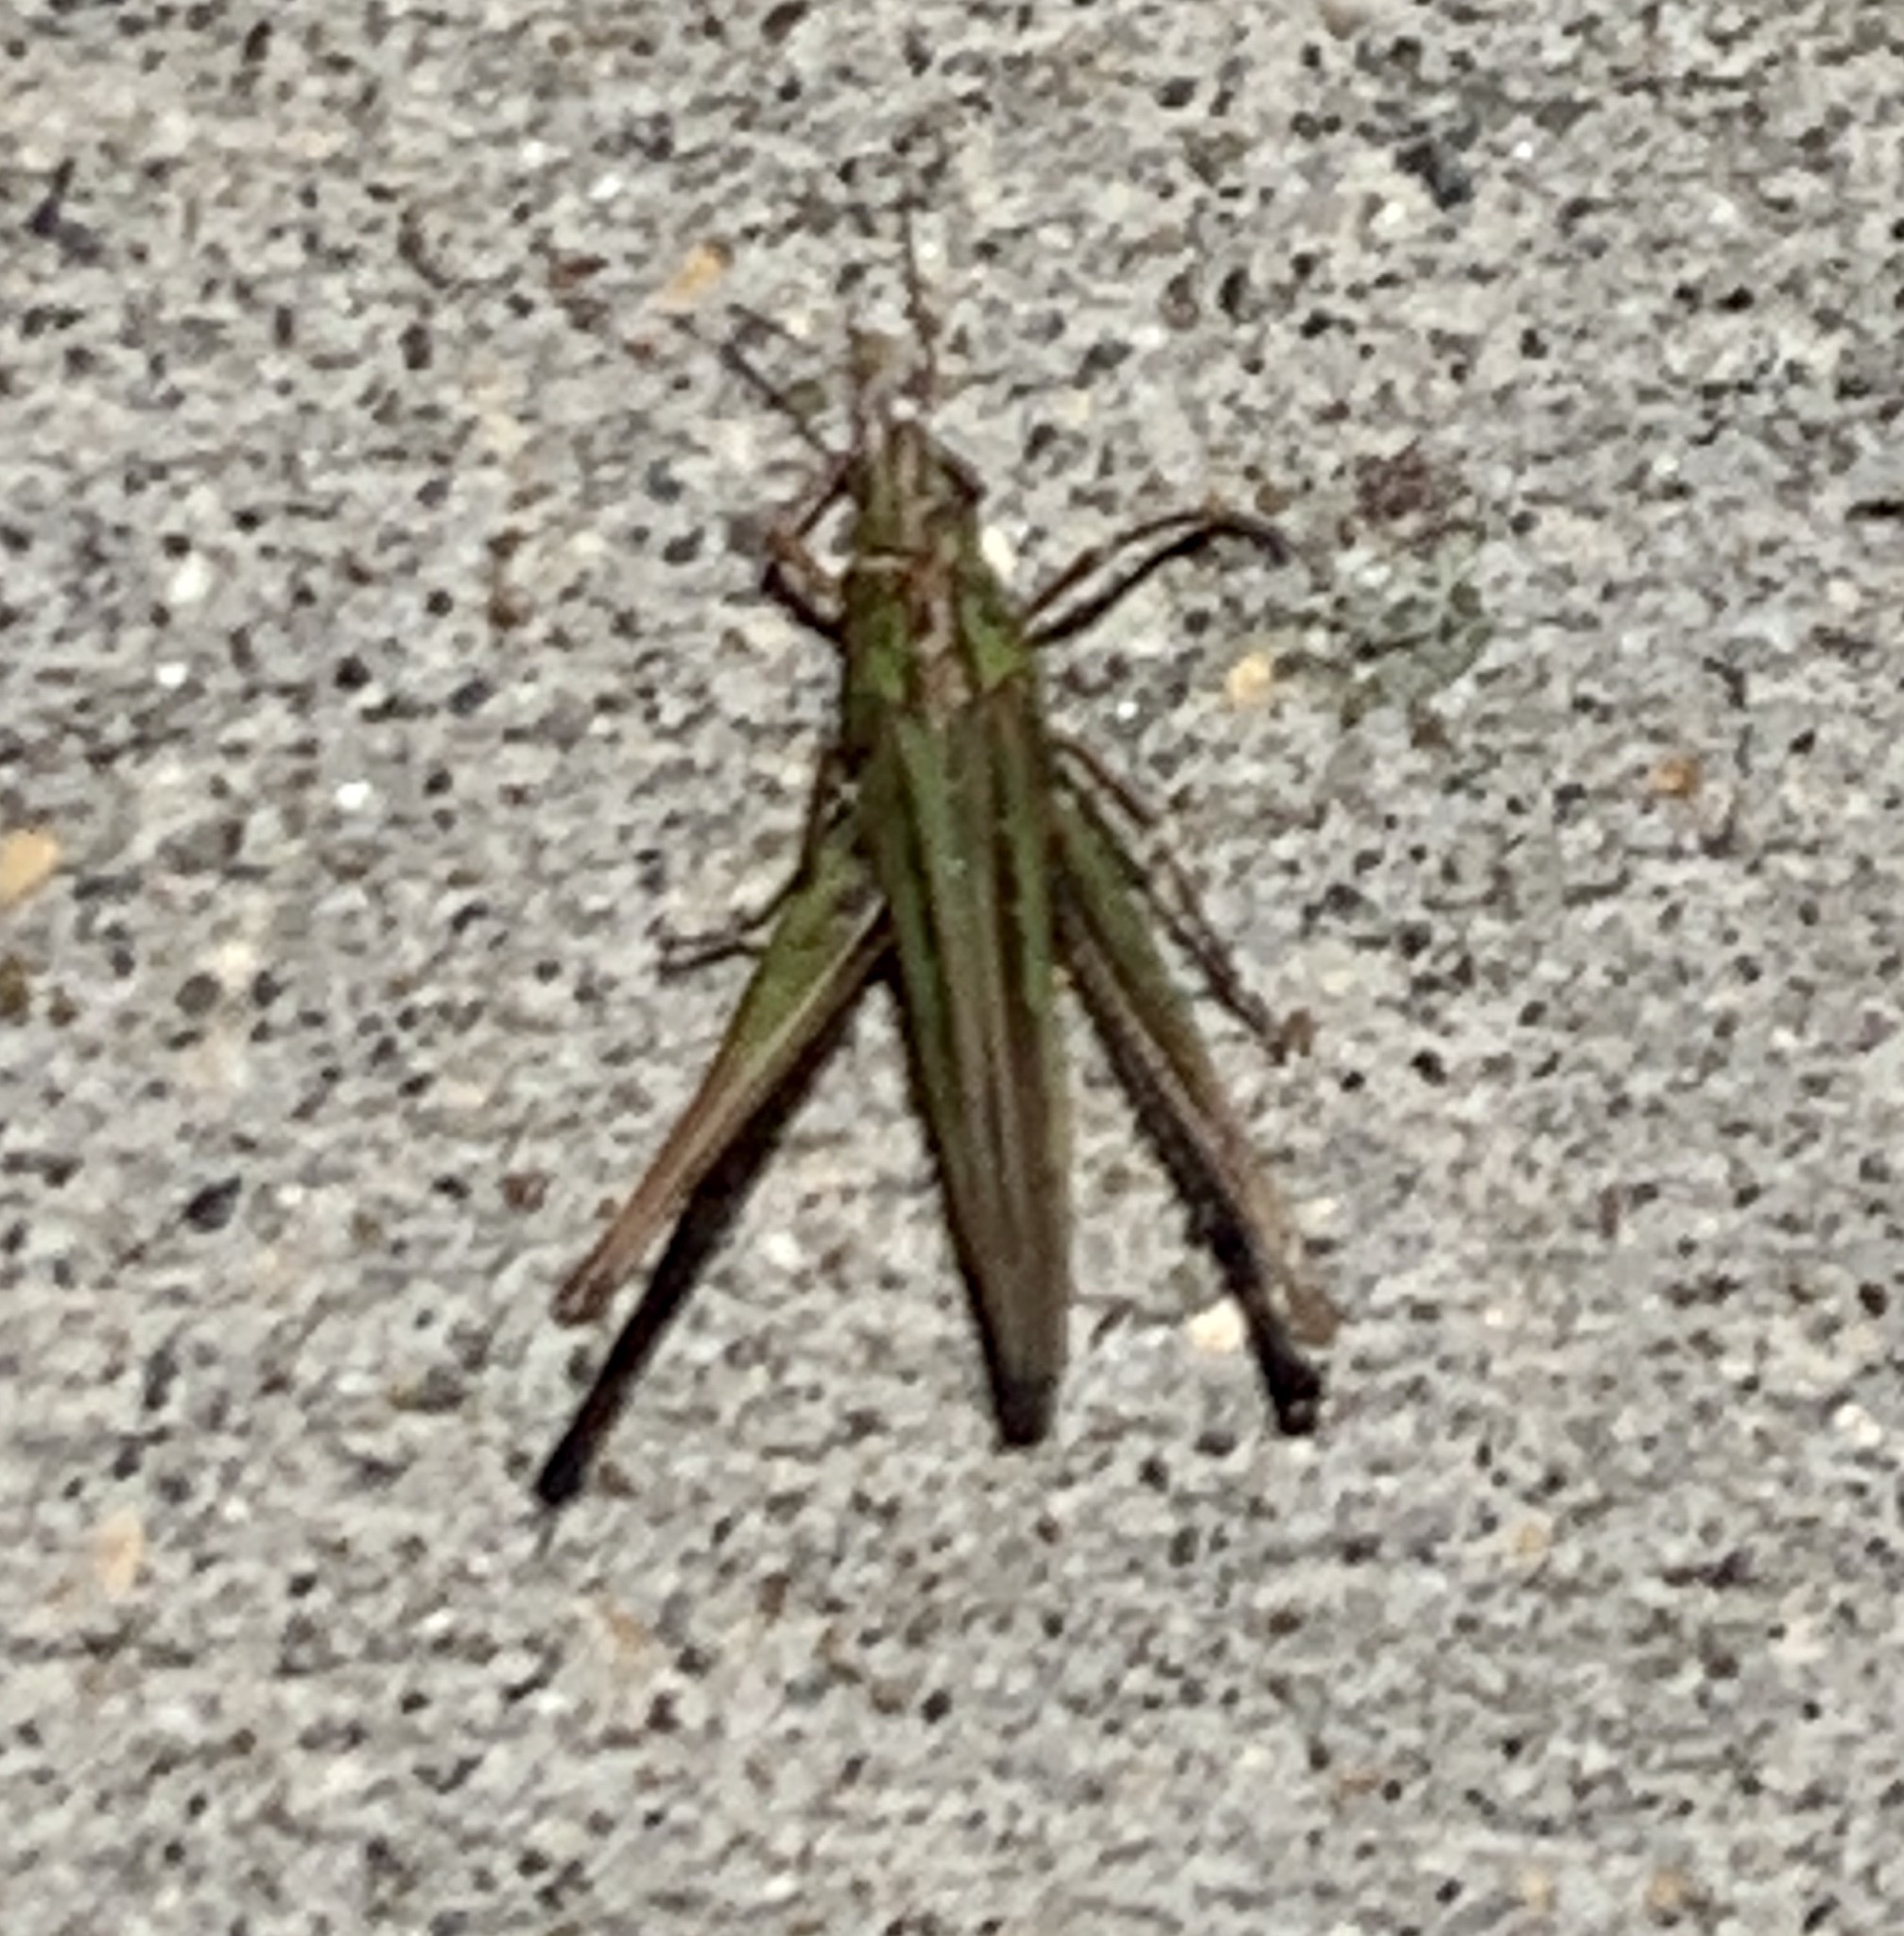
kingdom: Animalia
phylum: Arthropoda
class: Insecta
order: Orthoptera
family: Acrididae
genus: Syrbula
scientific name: Syrbula admirabilis
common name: Handsome grasshopper
